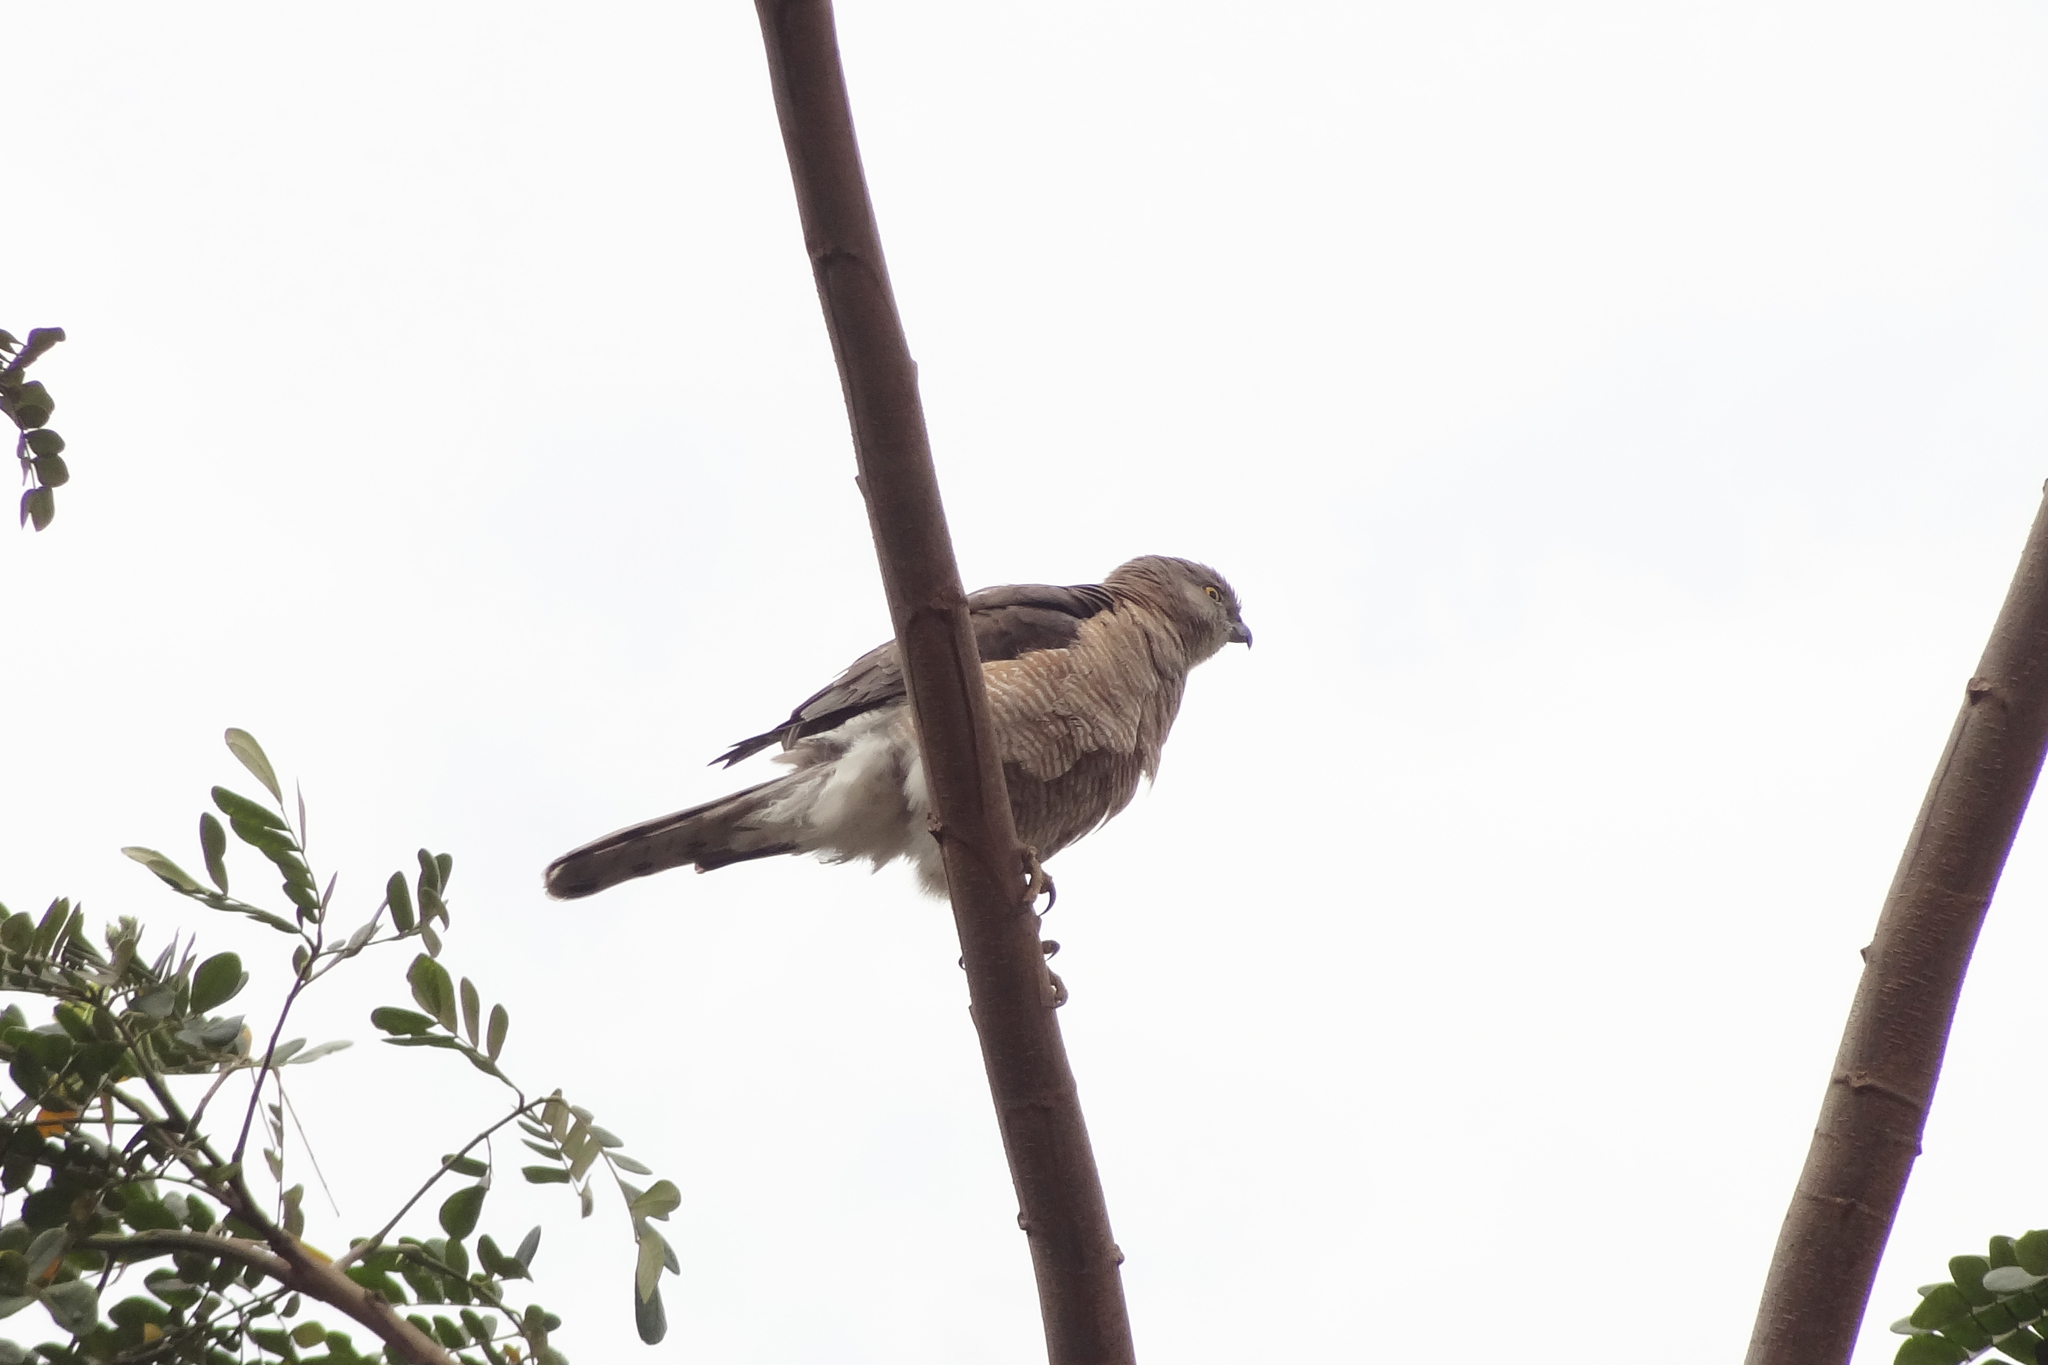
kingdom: Animalia
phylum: Chordata
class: Aves
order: Accipitriformes
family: Accipitridae
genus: Accipiter
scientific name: Accipiter badius
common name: Shikra
